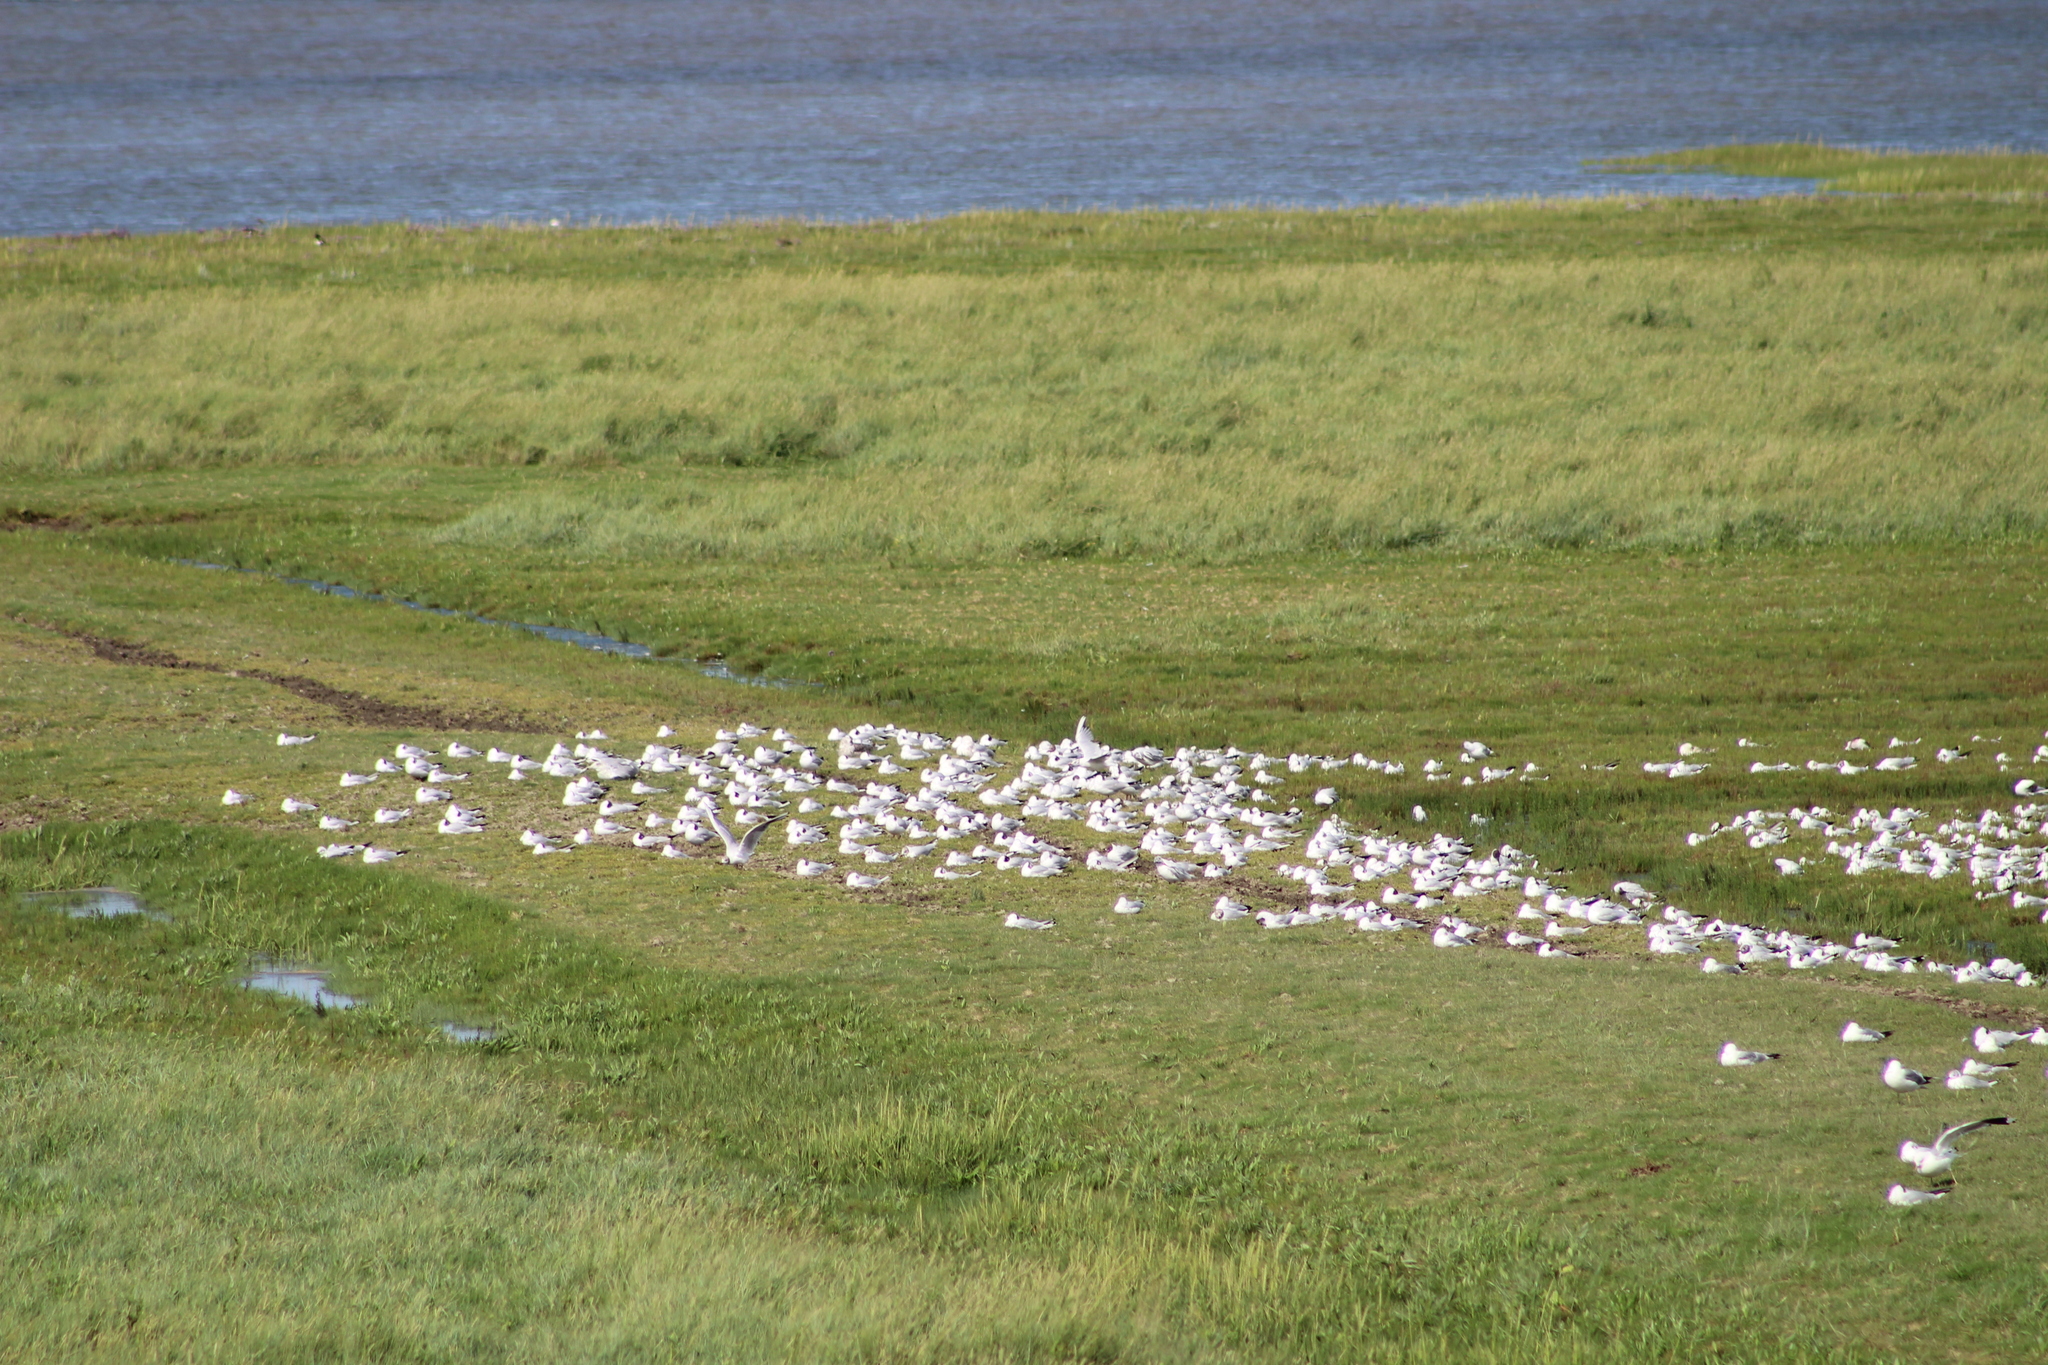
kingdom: Animalia
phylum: Chordata
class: Aves
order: Charadriiformes
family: Laridae
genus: Chroicocephalus
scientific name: Chroicocephalus ridibundus
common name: Black-headed gull
